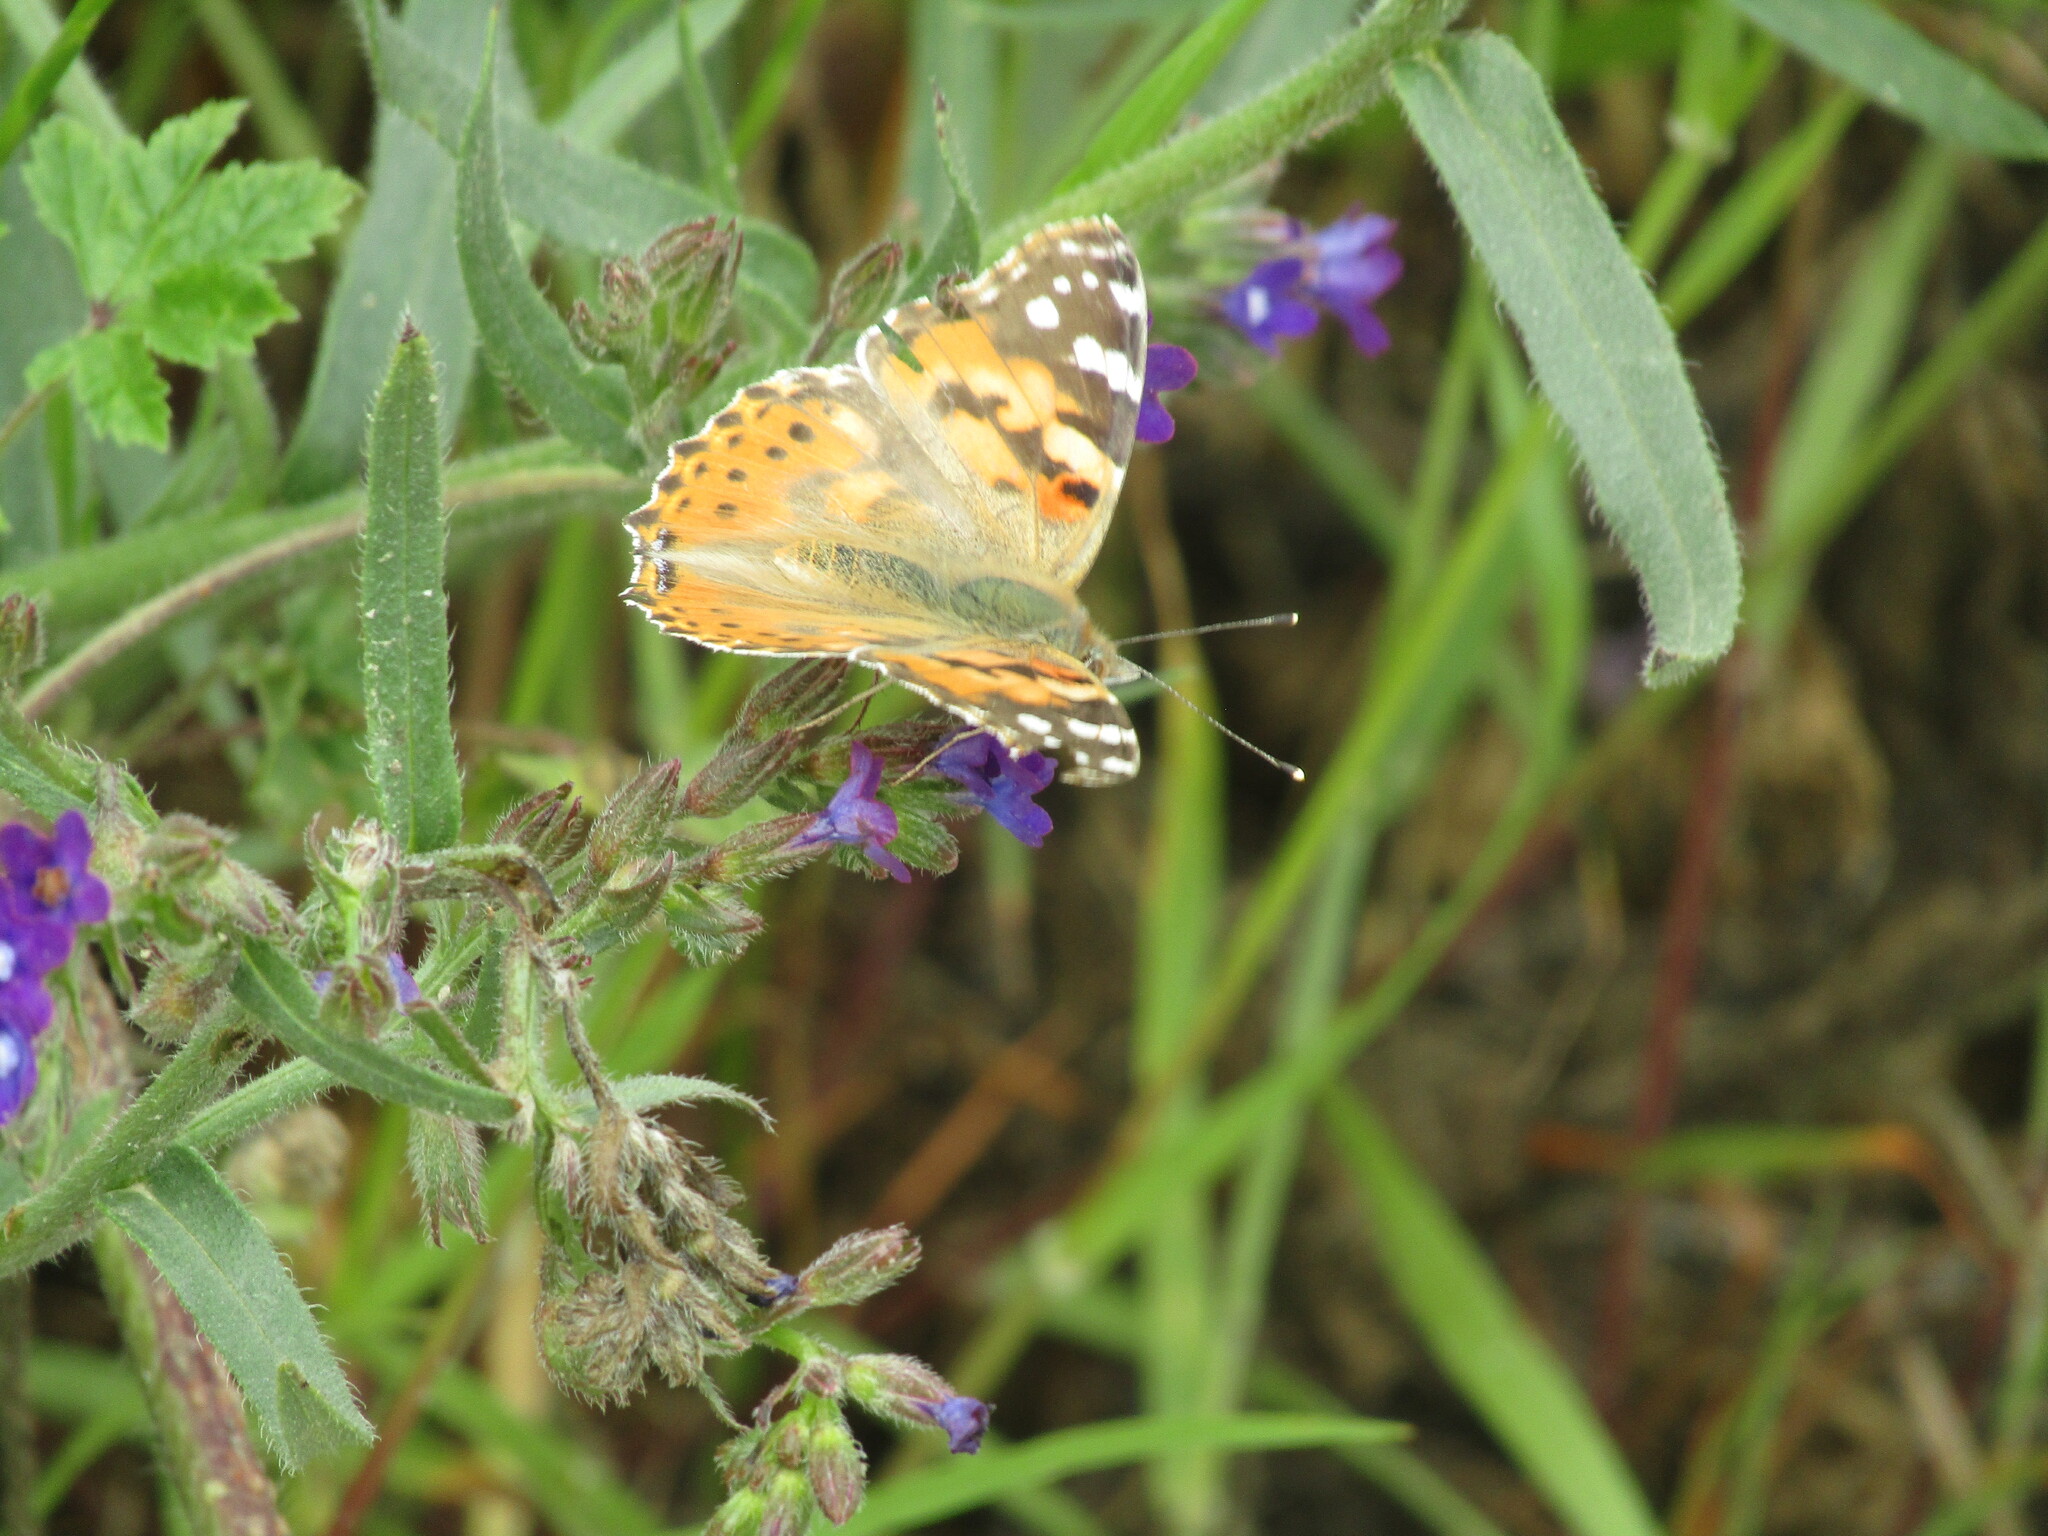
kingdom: Animalia
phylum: Arthropoda
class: Insecta
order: Lepidoptera
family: Nymphalidae
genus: Vanessa
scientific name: Vanessa cardui
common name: Painted lady
